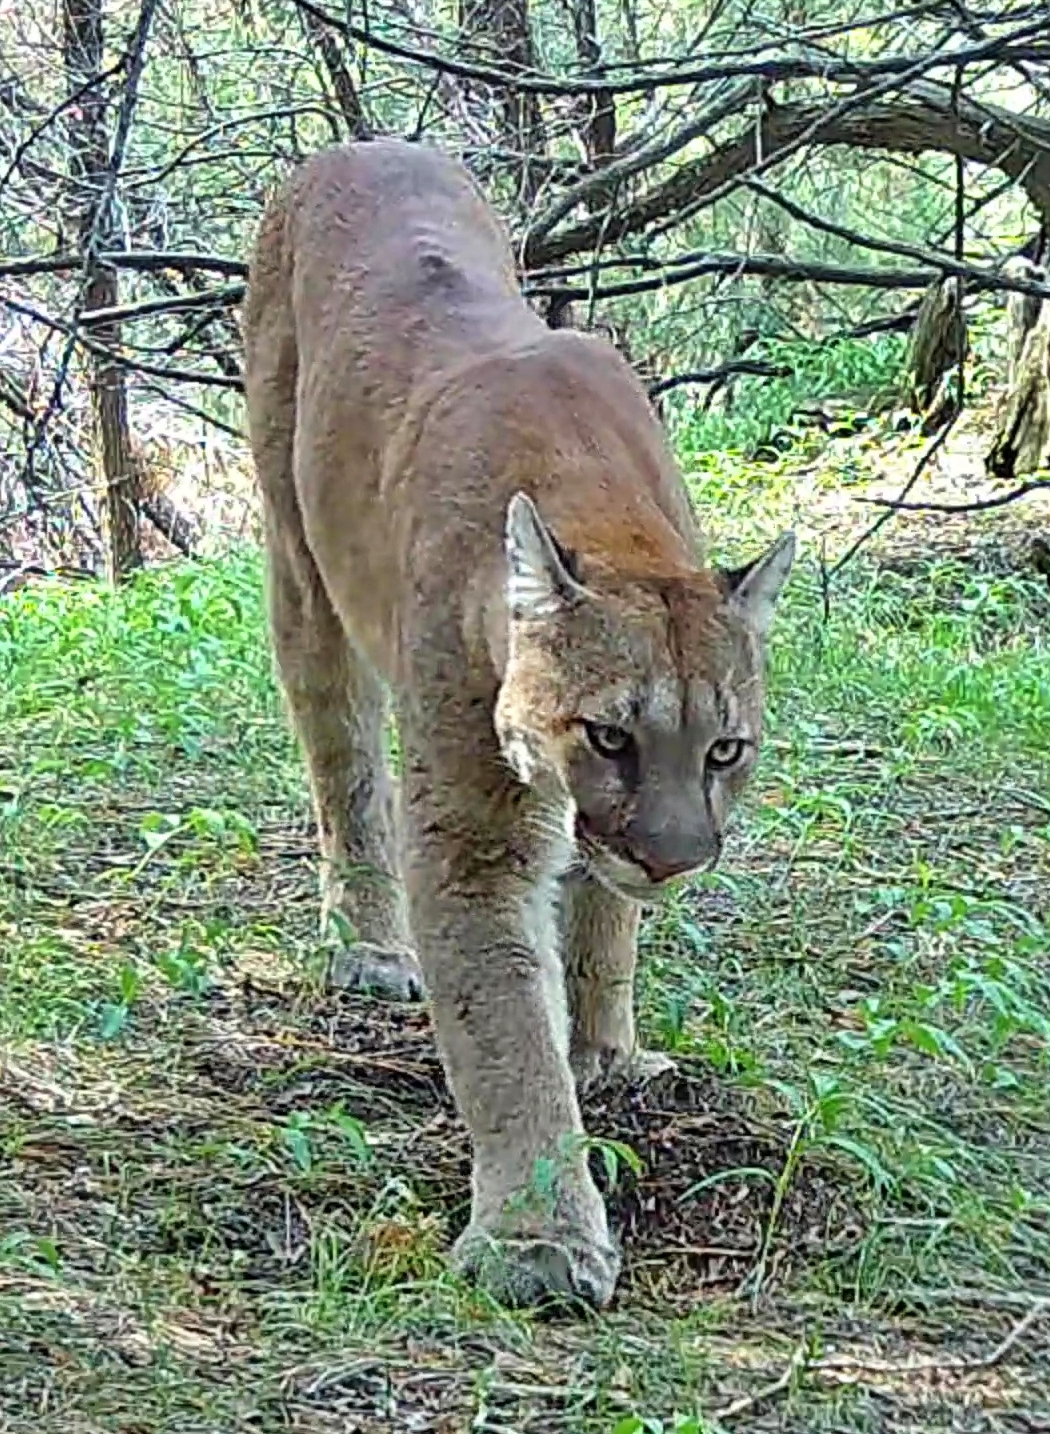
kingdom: Animalia
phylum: Chordata
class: Mammalia
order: Carnivora
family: Felidae
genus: Puma
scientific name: Puma concolor
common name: Puma
